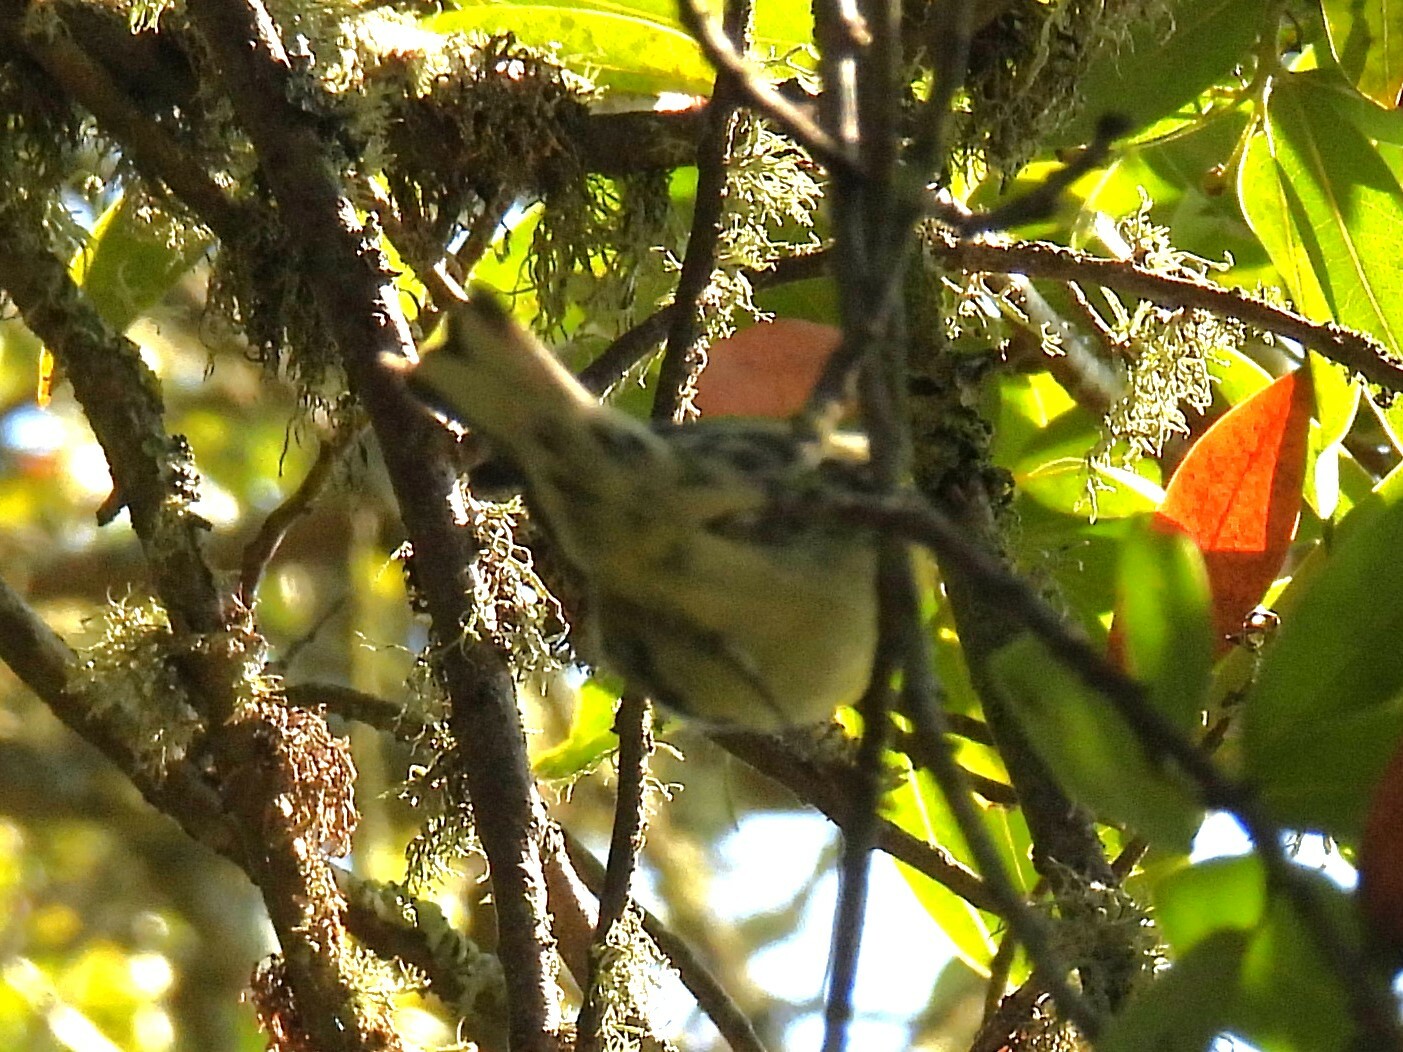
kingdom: Animalia
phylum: Chordata
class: Aves
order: Passeriformes
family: Parulidae
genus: Setophaga
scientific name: Setophaga townsendi
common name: Townsend's warbler
